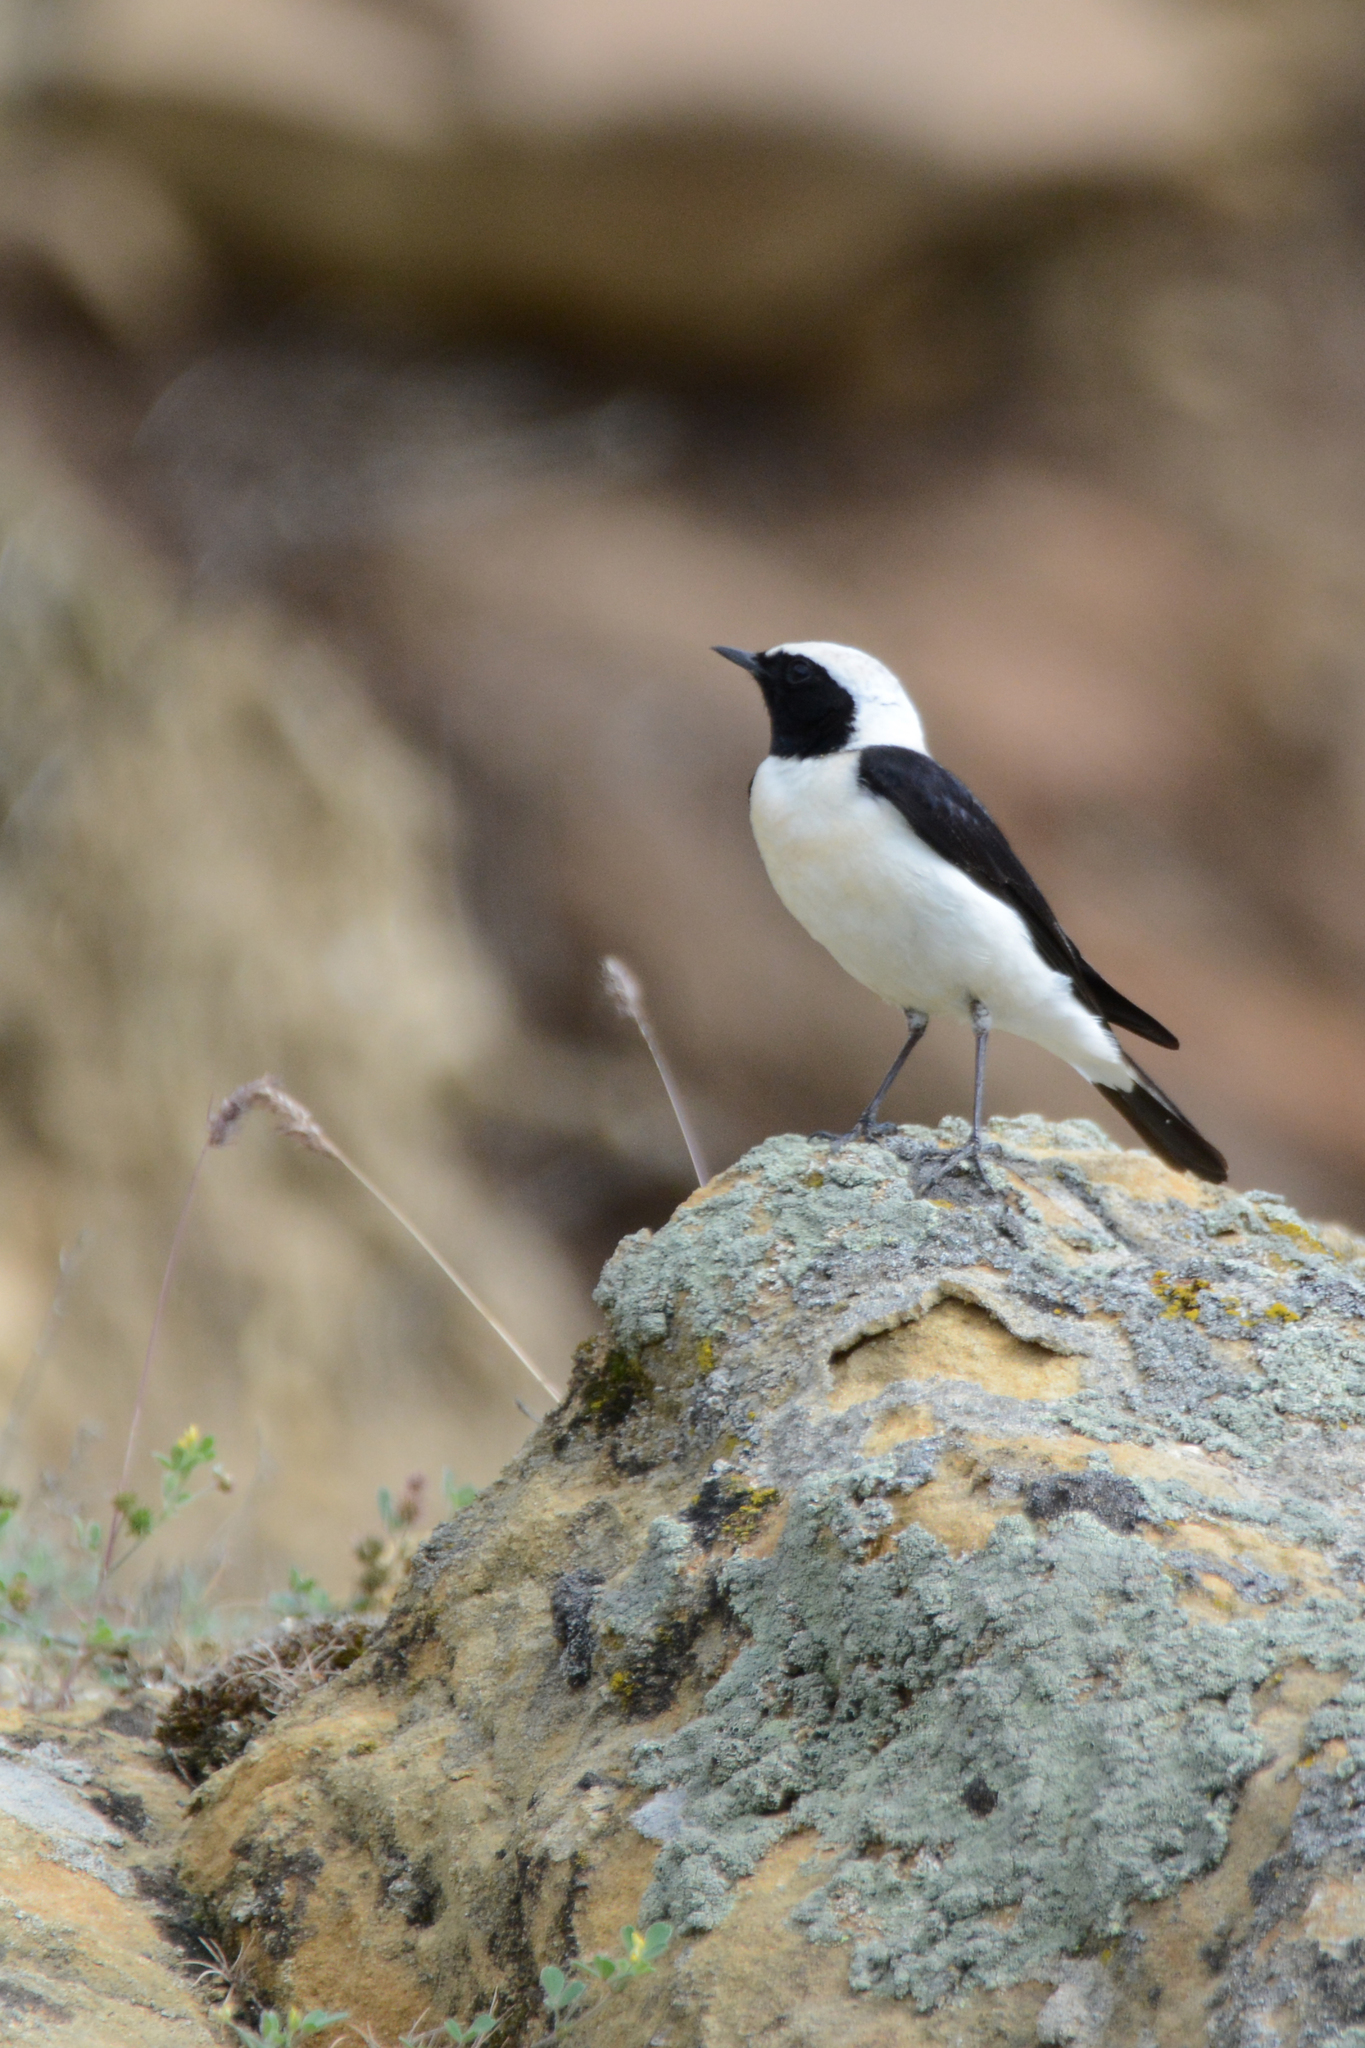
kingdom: Animalia
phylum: Chordata
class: Aves
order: Passeriformes
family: Muscicapidae
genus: Oenanthe
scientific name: Oenanthe hispanica
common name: Black-eared wheatear
